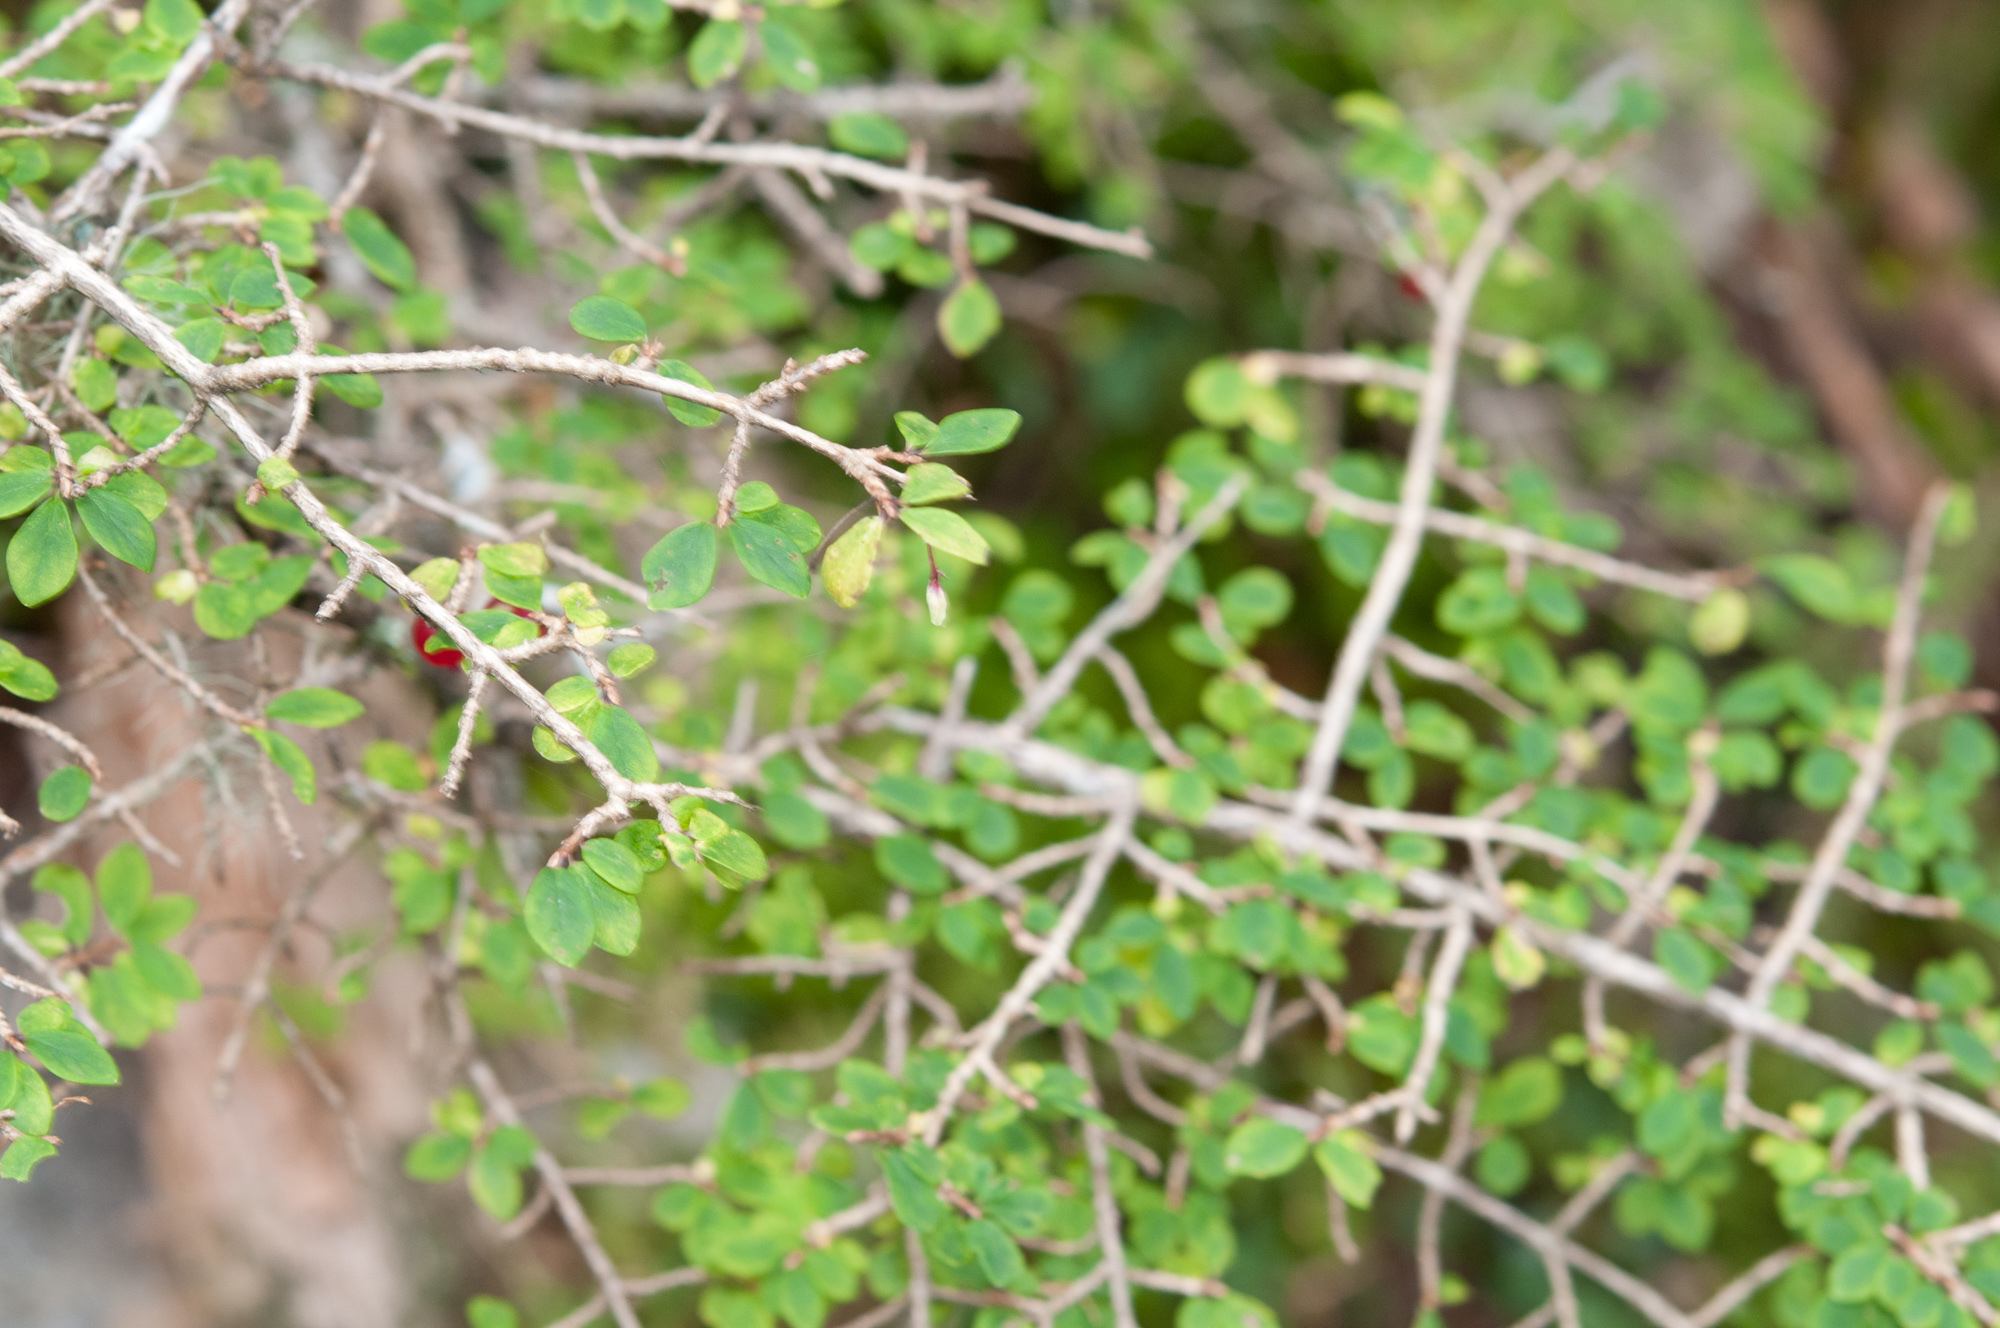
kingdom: Plantae
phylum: Tracheophyta
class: Magnoliopsida
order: Dipsacales
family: Caprifoliaceae
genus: Lonicera
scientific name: Lonicera kawakamii
